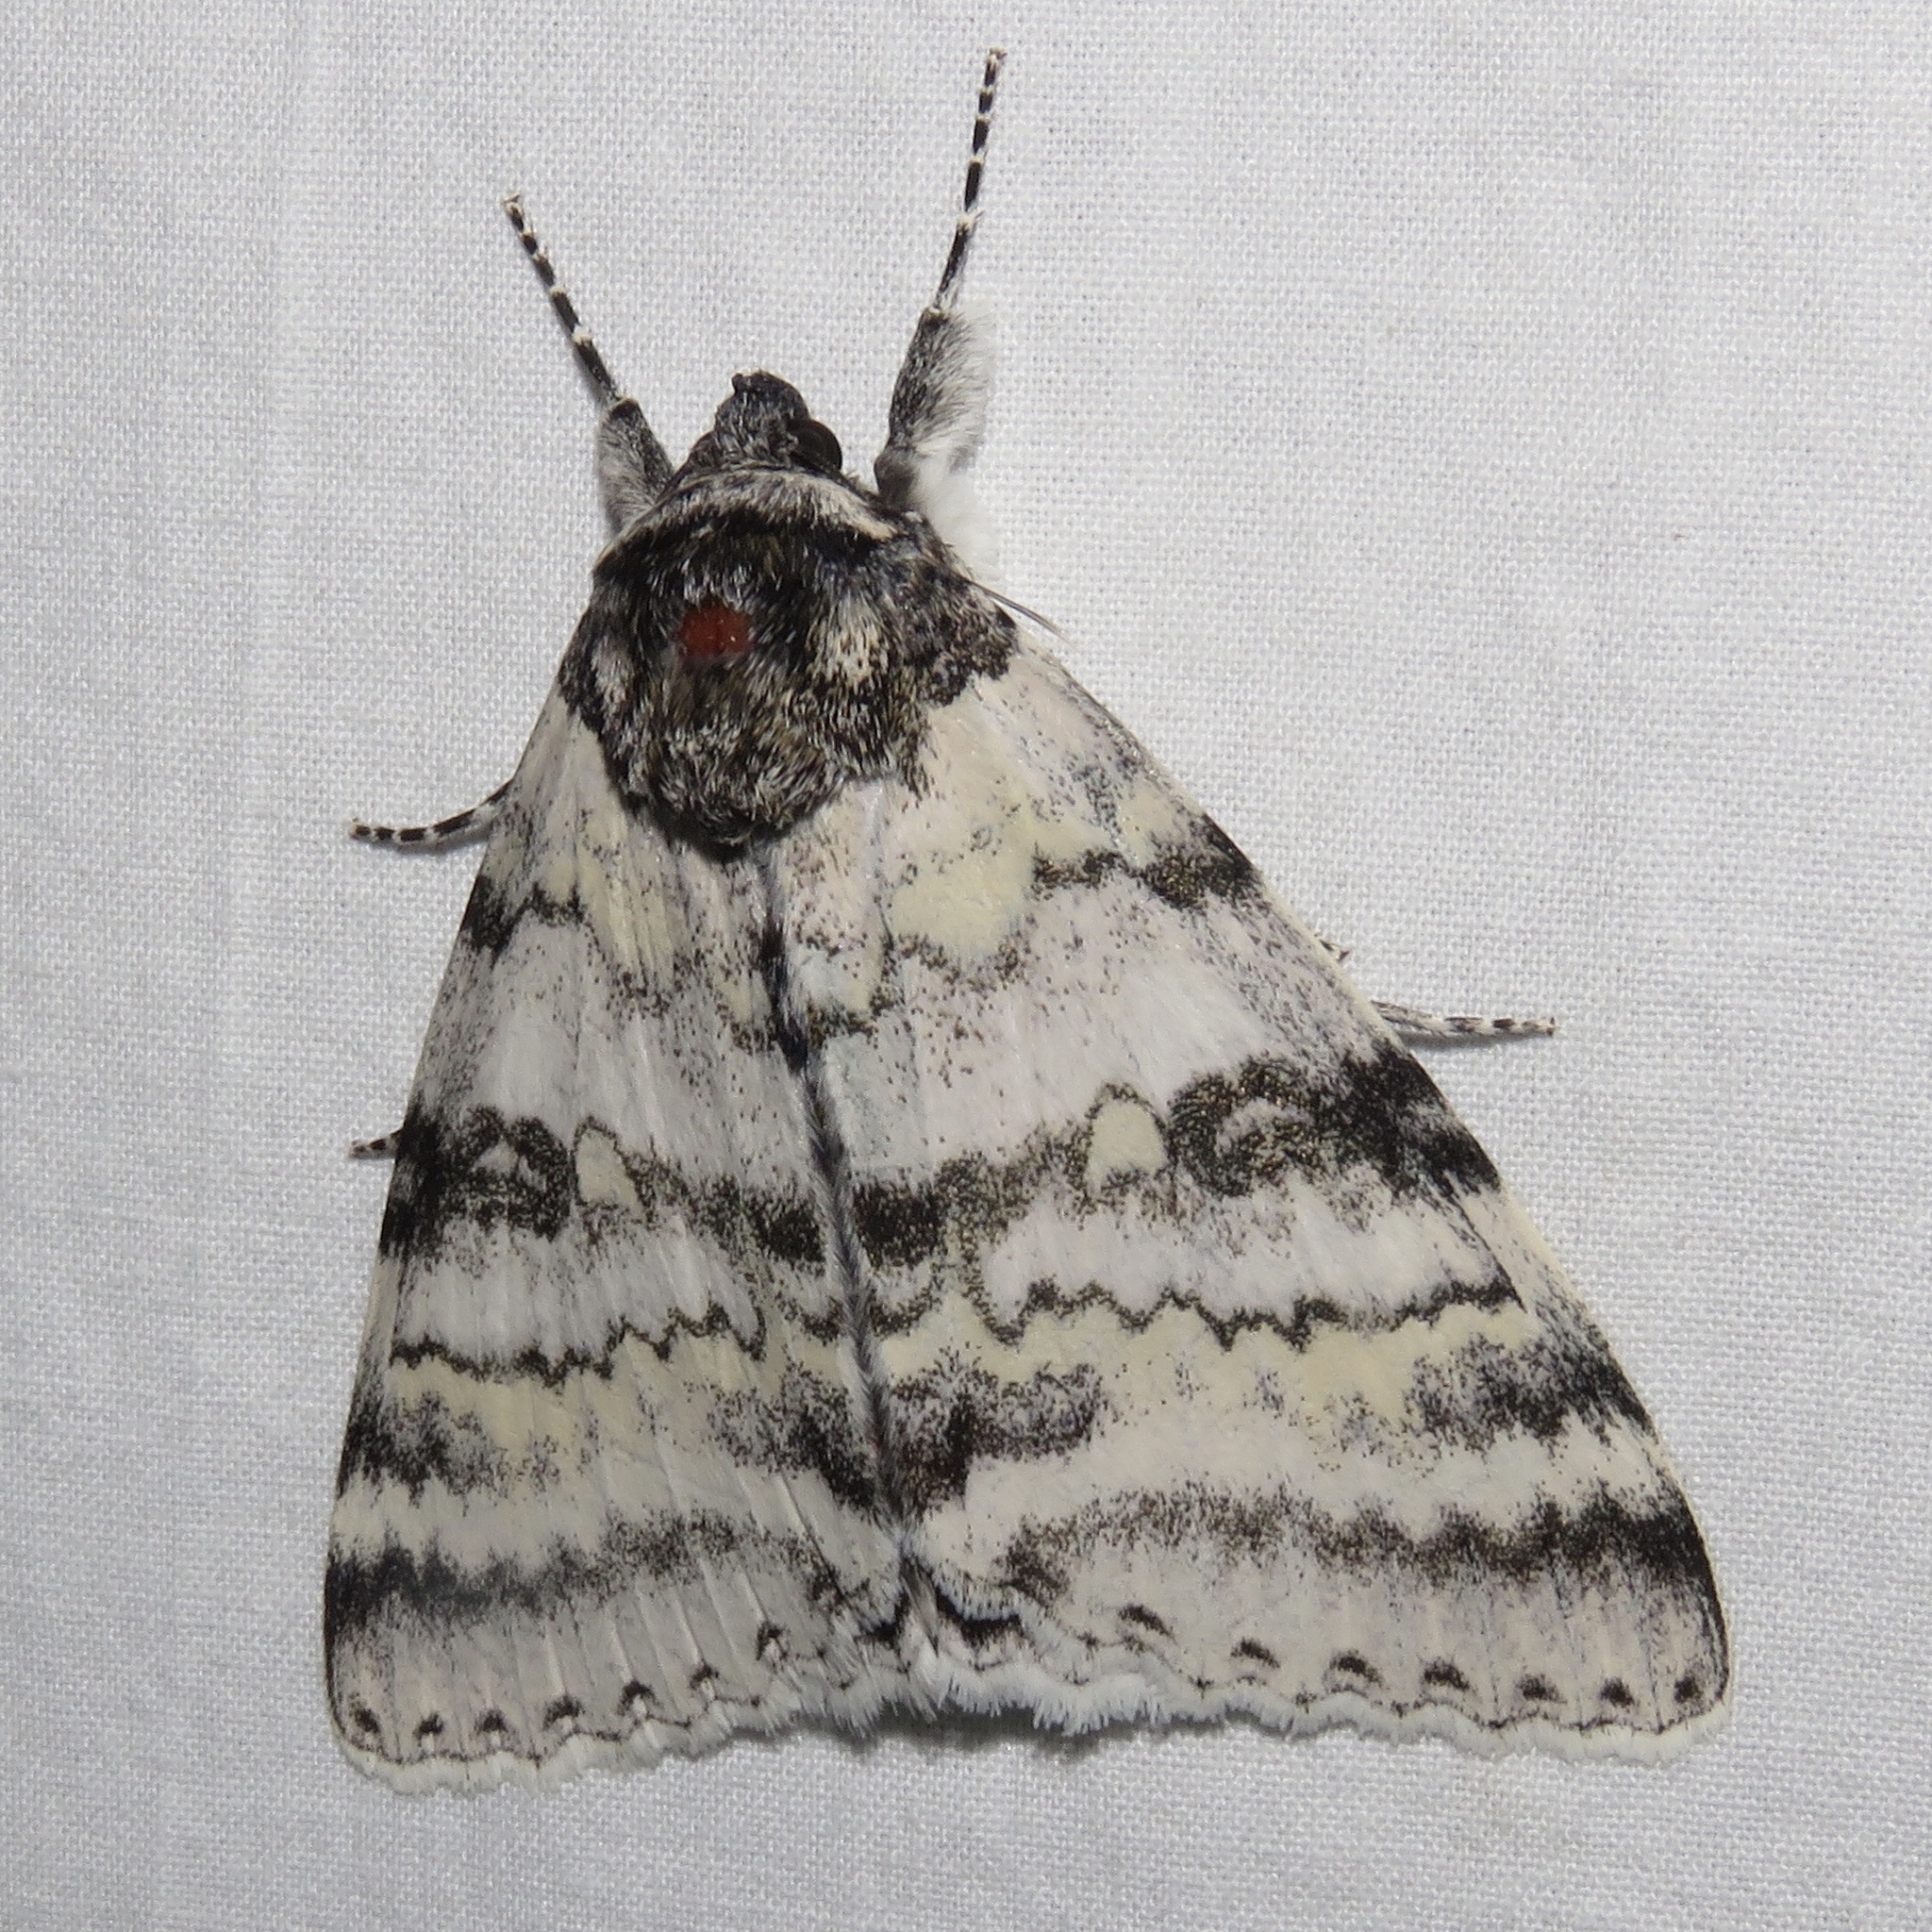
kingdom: Animalia
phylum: Arthropoda
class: Insecta
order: Lepidoptera
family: Erebidae
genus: Catocala
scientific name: Catocala relicta
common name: White underwing
